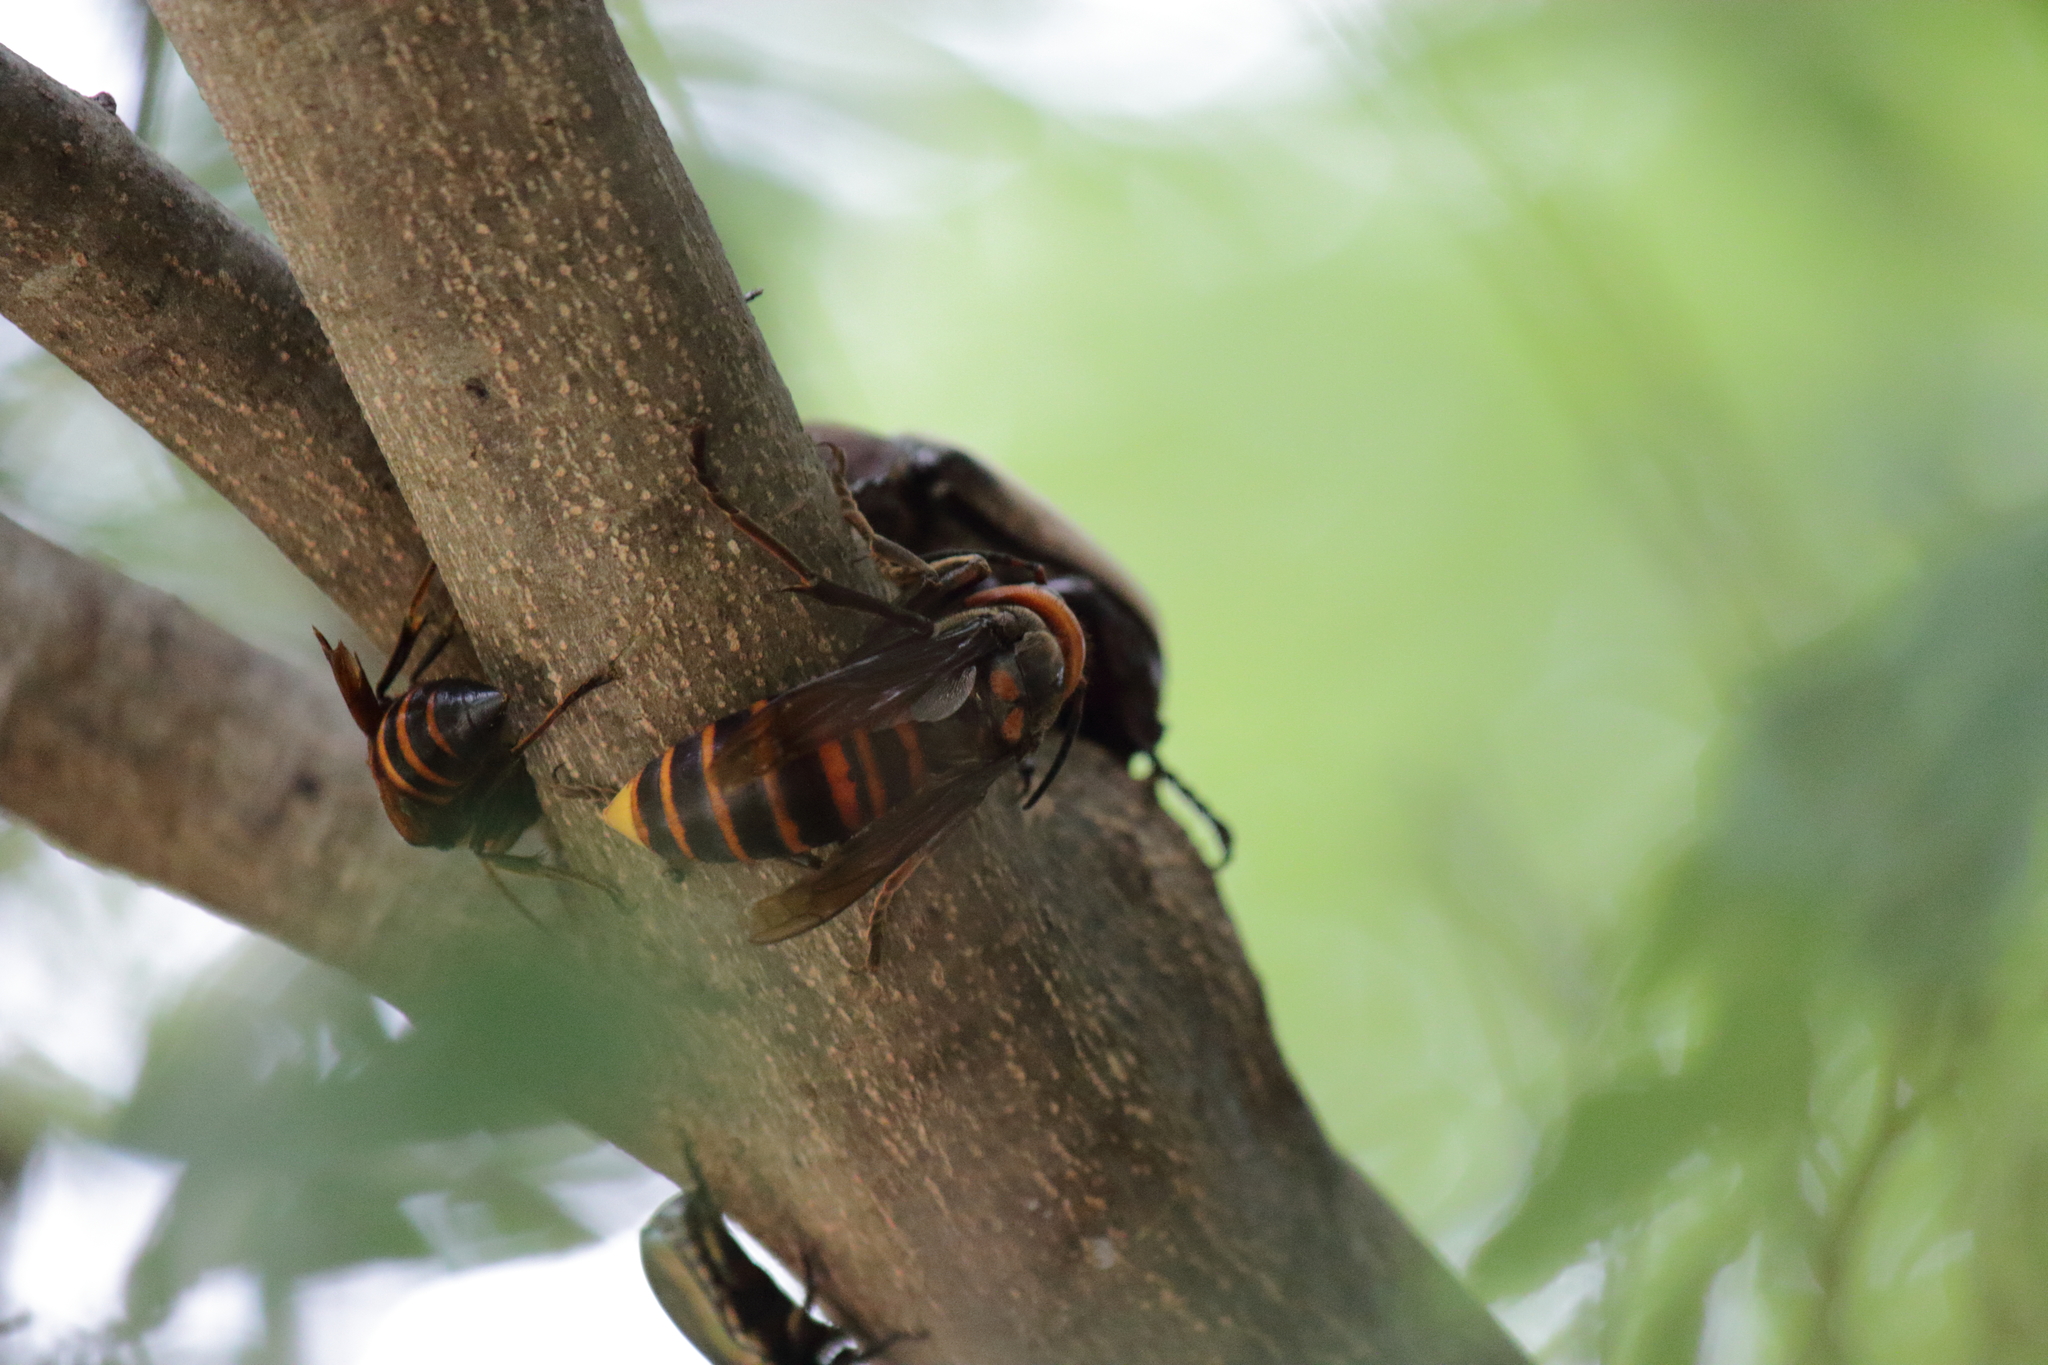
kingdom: Animalia
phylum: Arthropoda
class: Insecta
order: Hymenoptera
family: Vespidae
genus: Vespa
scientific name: Vespa mandarinia
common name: Asian giant hornet
